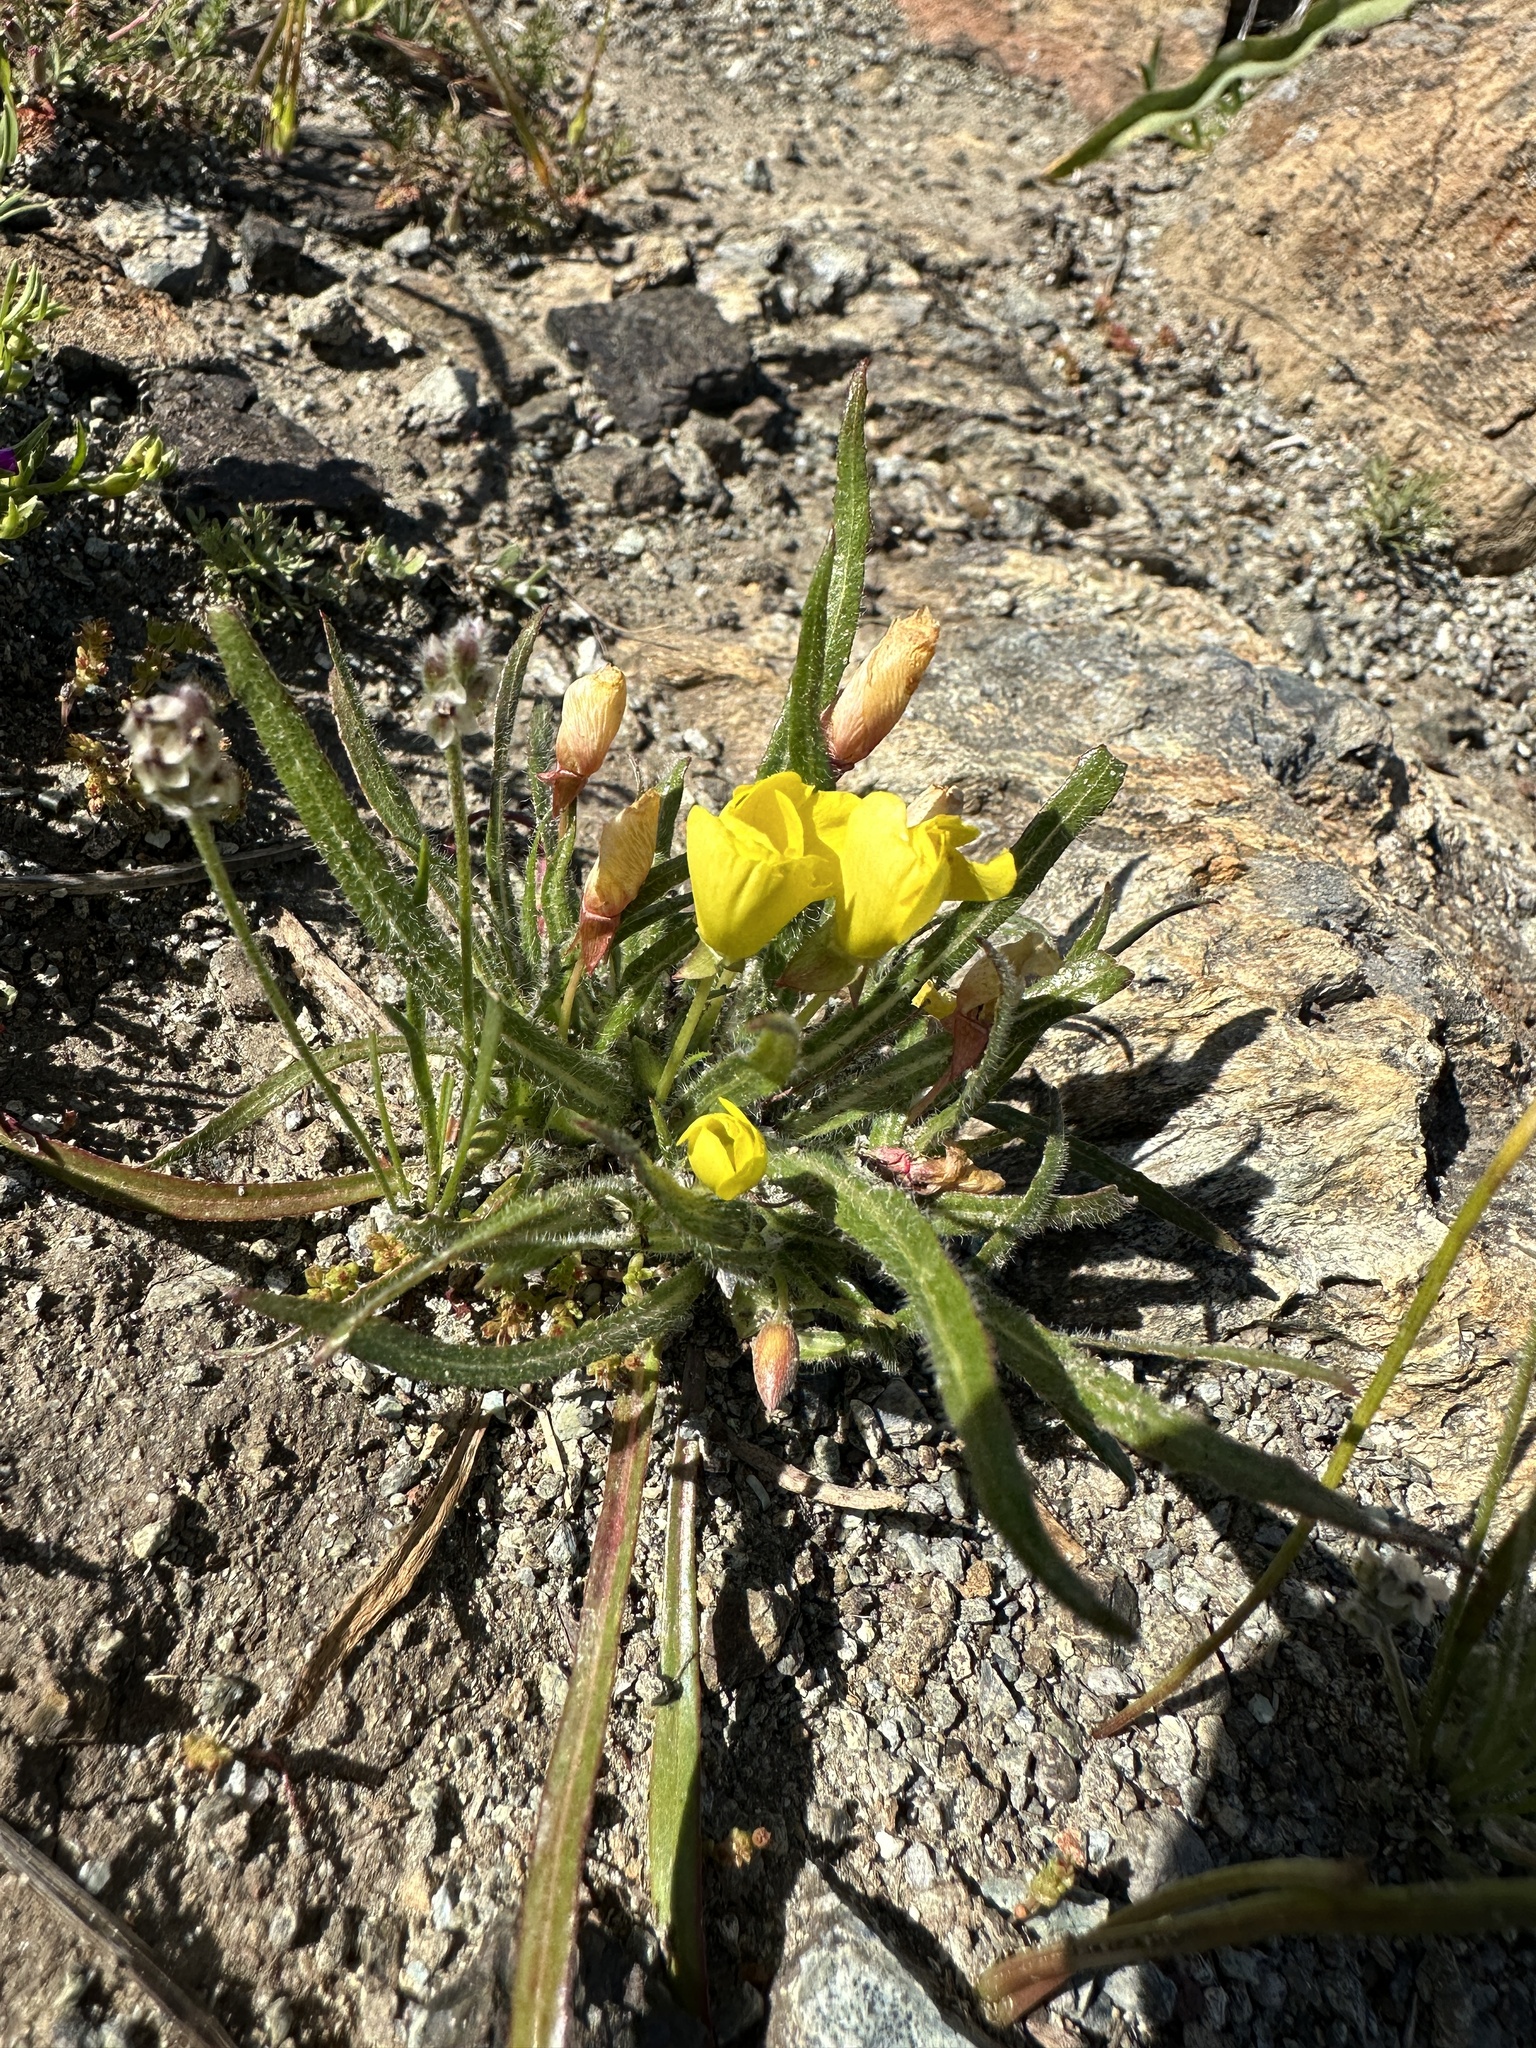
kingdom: Plantae
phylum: Tracheophyta
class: Magnoliopsida
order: Myrtales
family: Onagraceae
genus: Tetrapteron
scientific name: Tetrapteron graciliflorum
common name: Hill suncup
